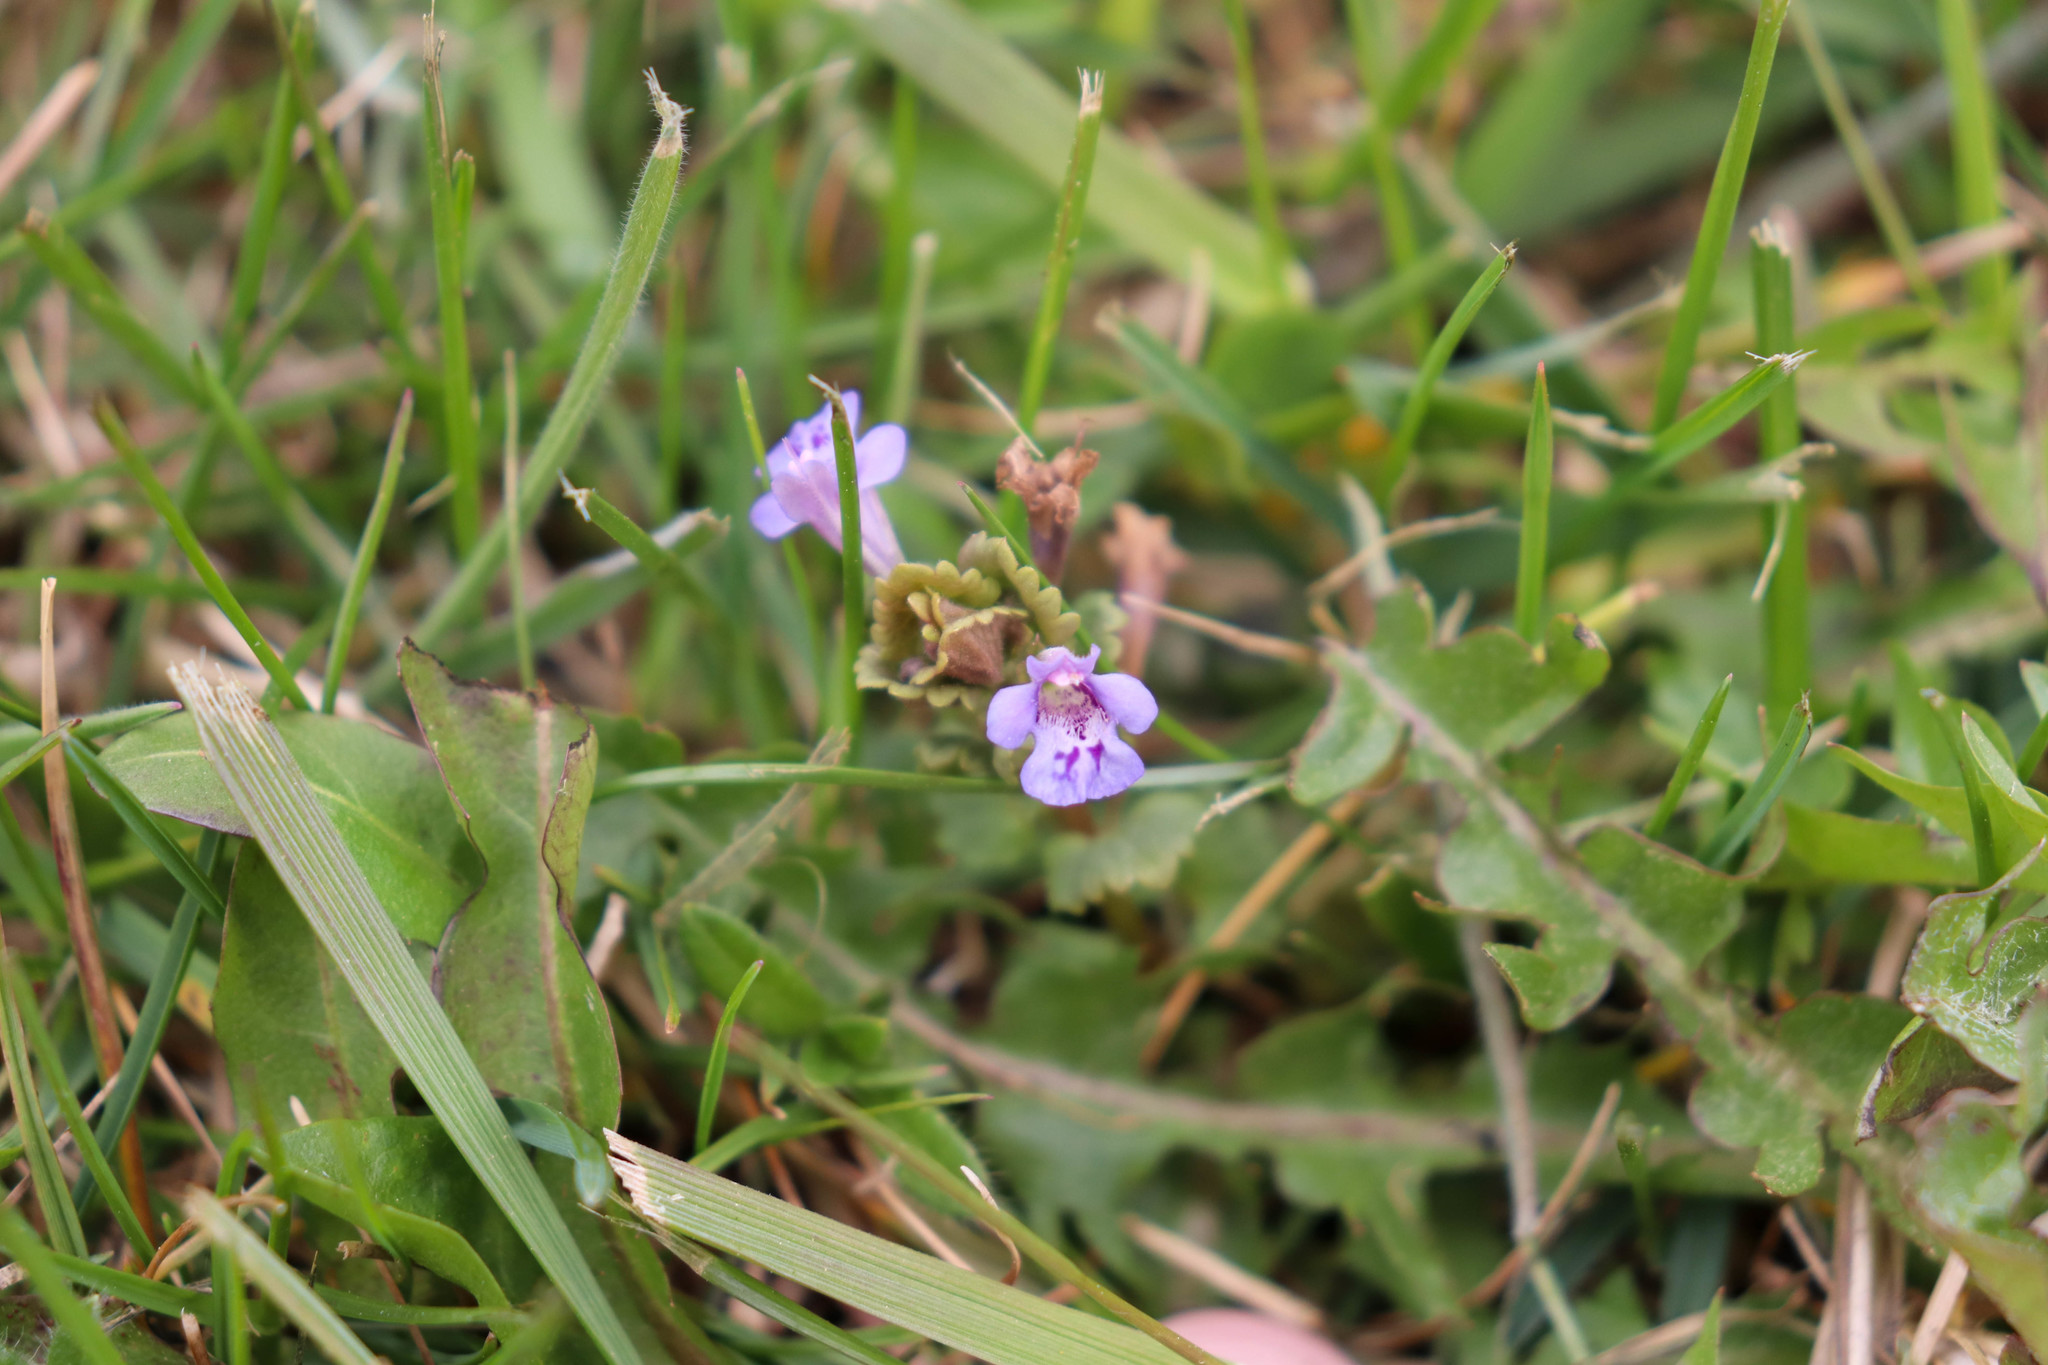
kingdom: Plantae
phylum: Tracheophyta
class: Magnoliopsida
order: Lamiales
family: Lamiaceae
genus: Glechoma
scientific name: Glechoma hederacea
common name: Ground ivy
